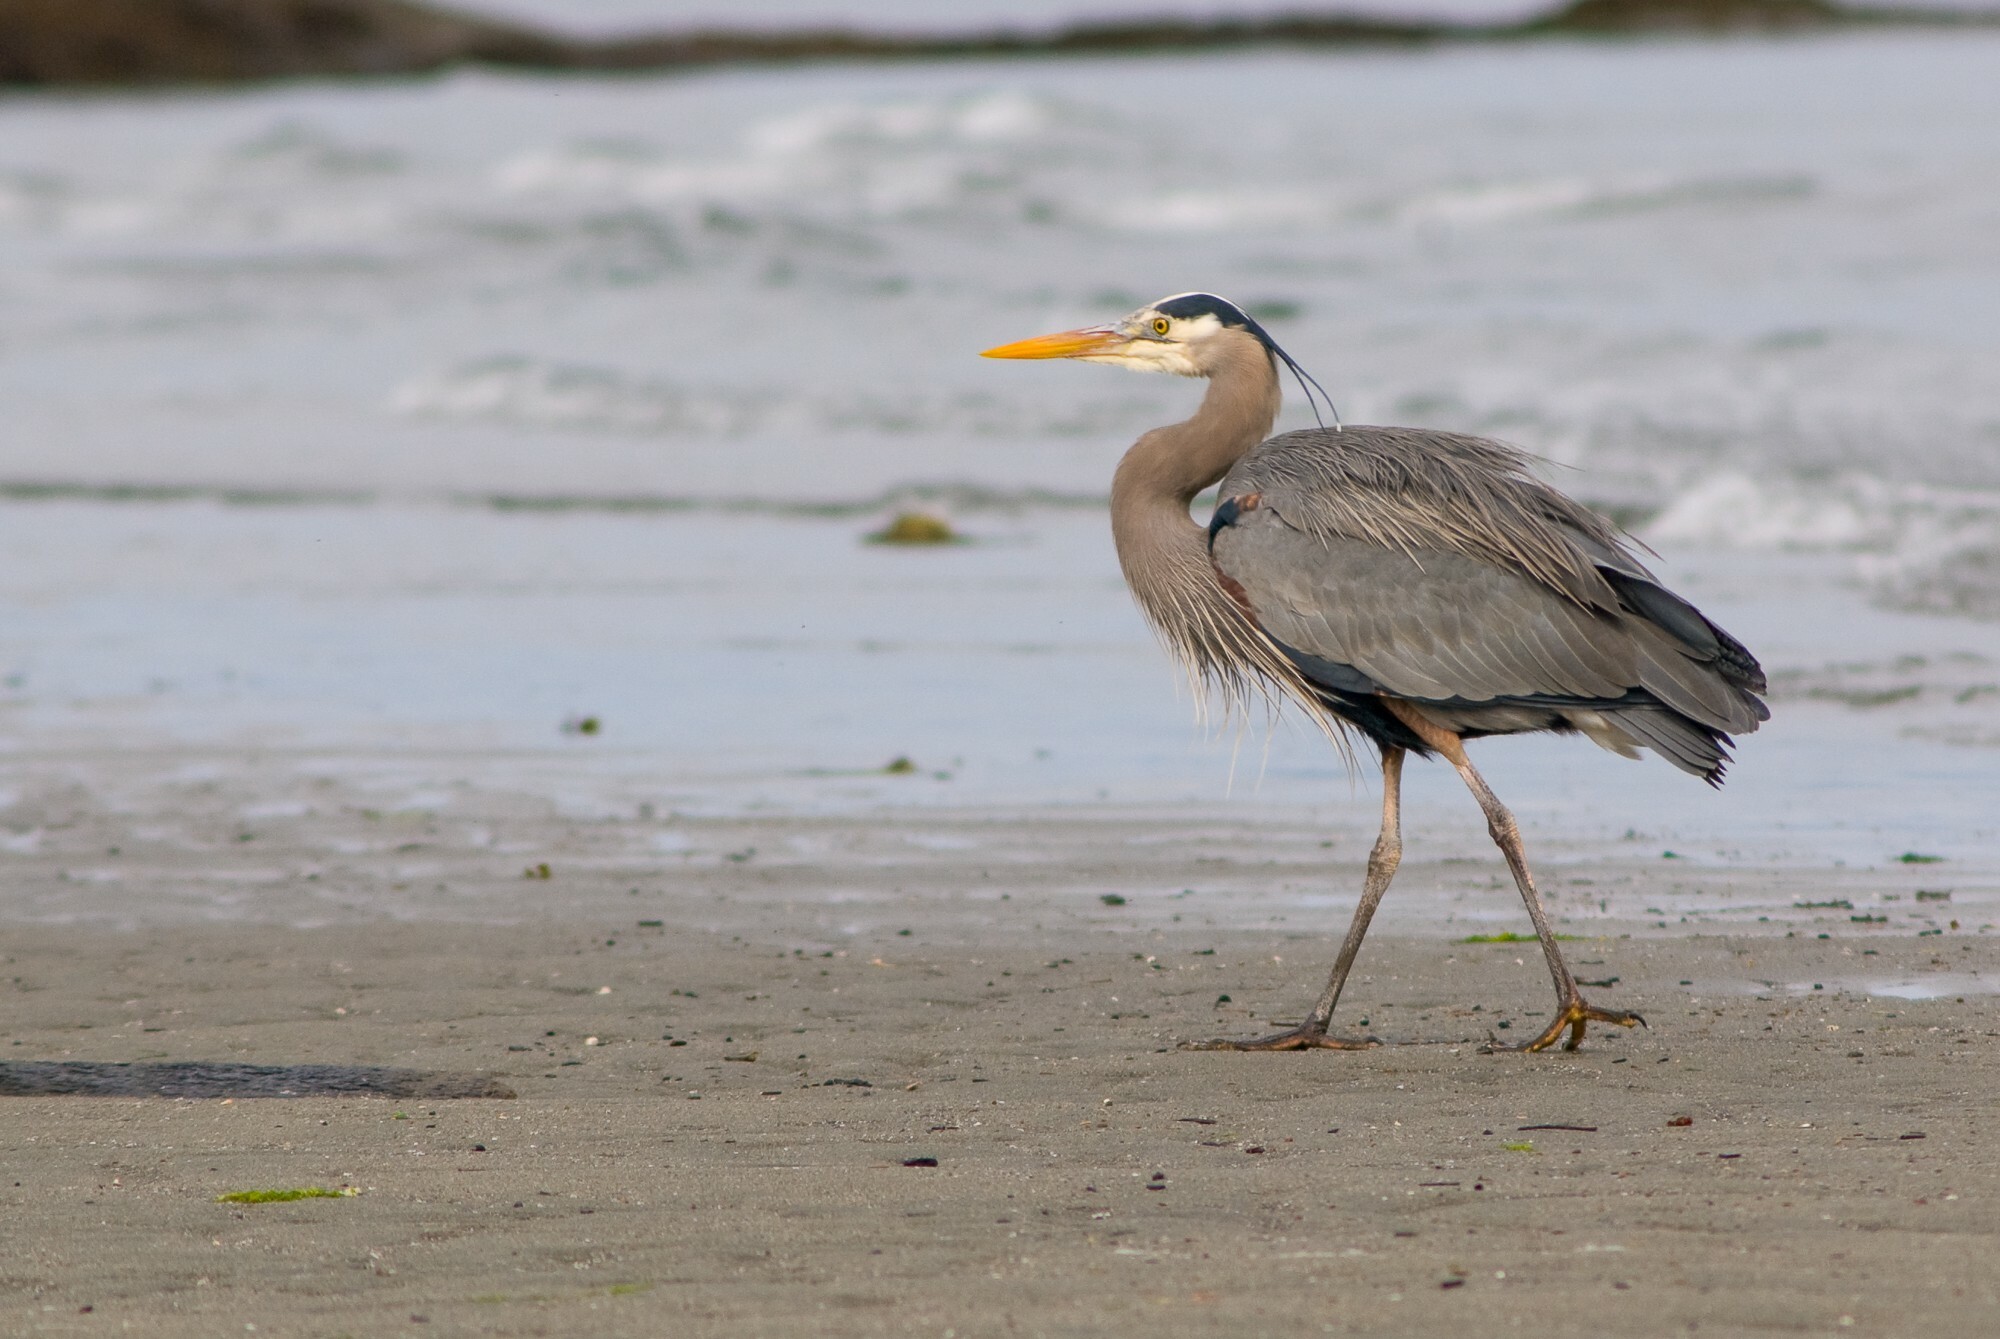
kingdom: Animalia
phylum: Chordata
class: Aves
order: Pelecaniformes
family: Ardeidae
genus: Ardea
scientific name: Ardea herodias
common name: Great blue heron
